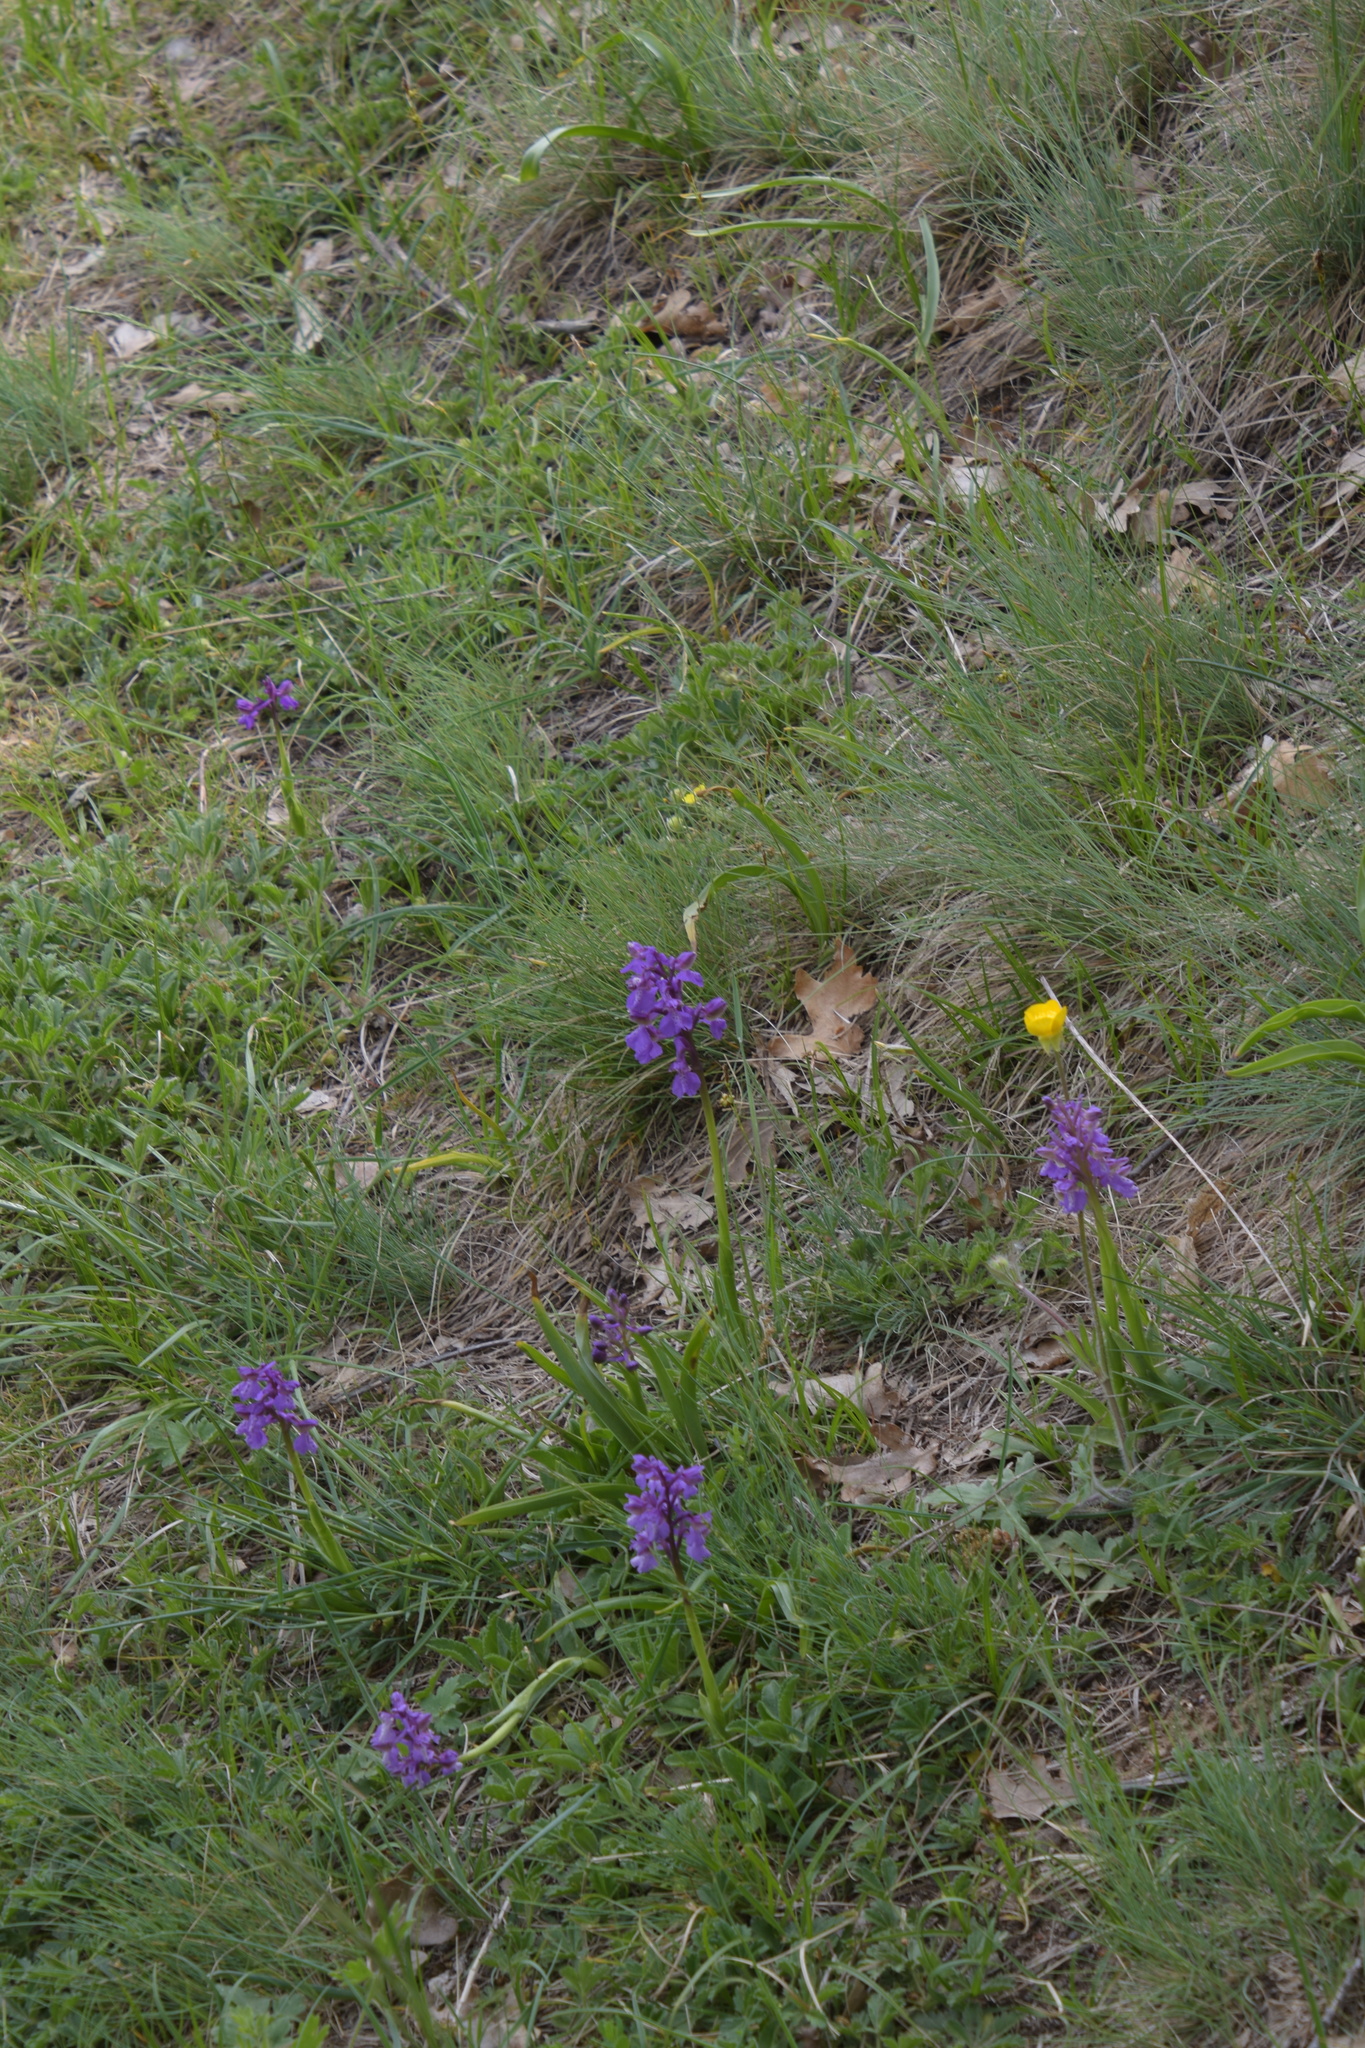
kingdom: Plantae
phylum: Tracheophyta
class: Liliopsida
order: Asparagales
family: Orchidaceae
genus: Anacamptis
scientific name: Anacamptis morio
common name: Green-winged orchid
